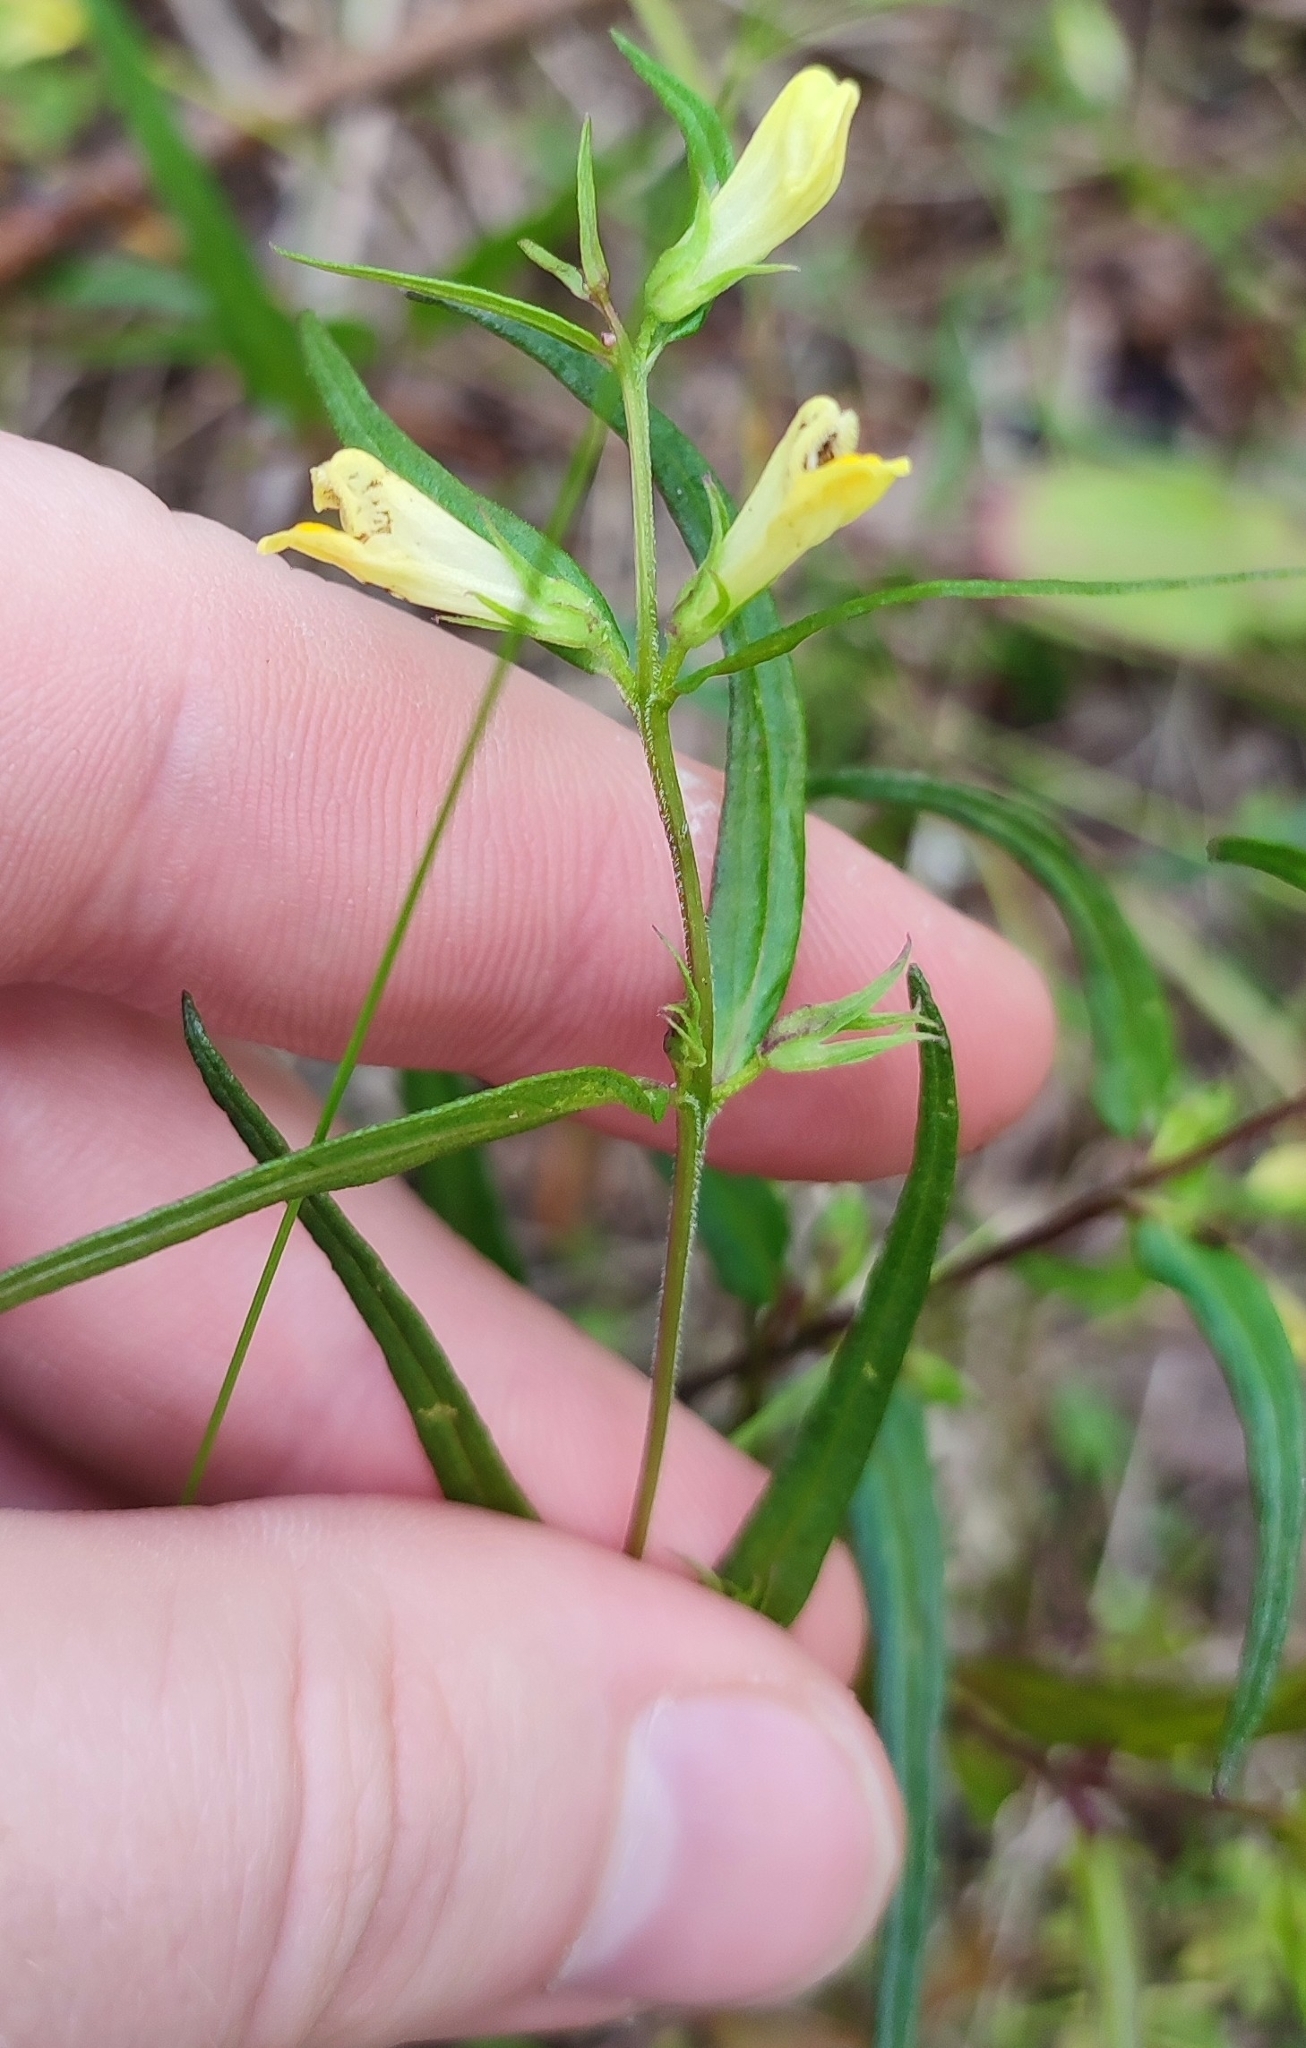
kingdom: Plantae
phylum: Tracheophyta
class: Magnoliopsida
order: Lamiales
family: Orobanchaceae
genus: Melampyrum
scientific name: Melampyrum pratense
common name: Common cow-wheat
